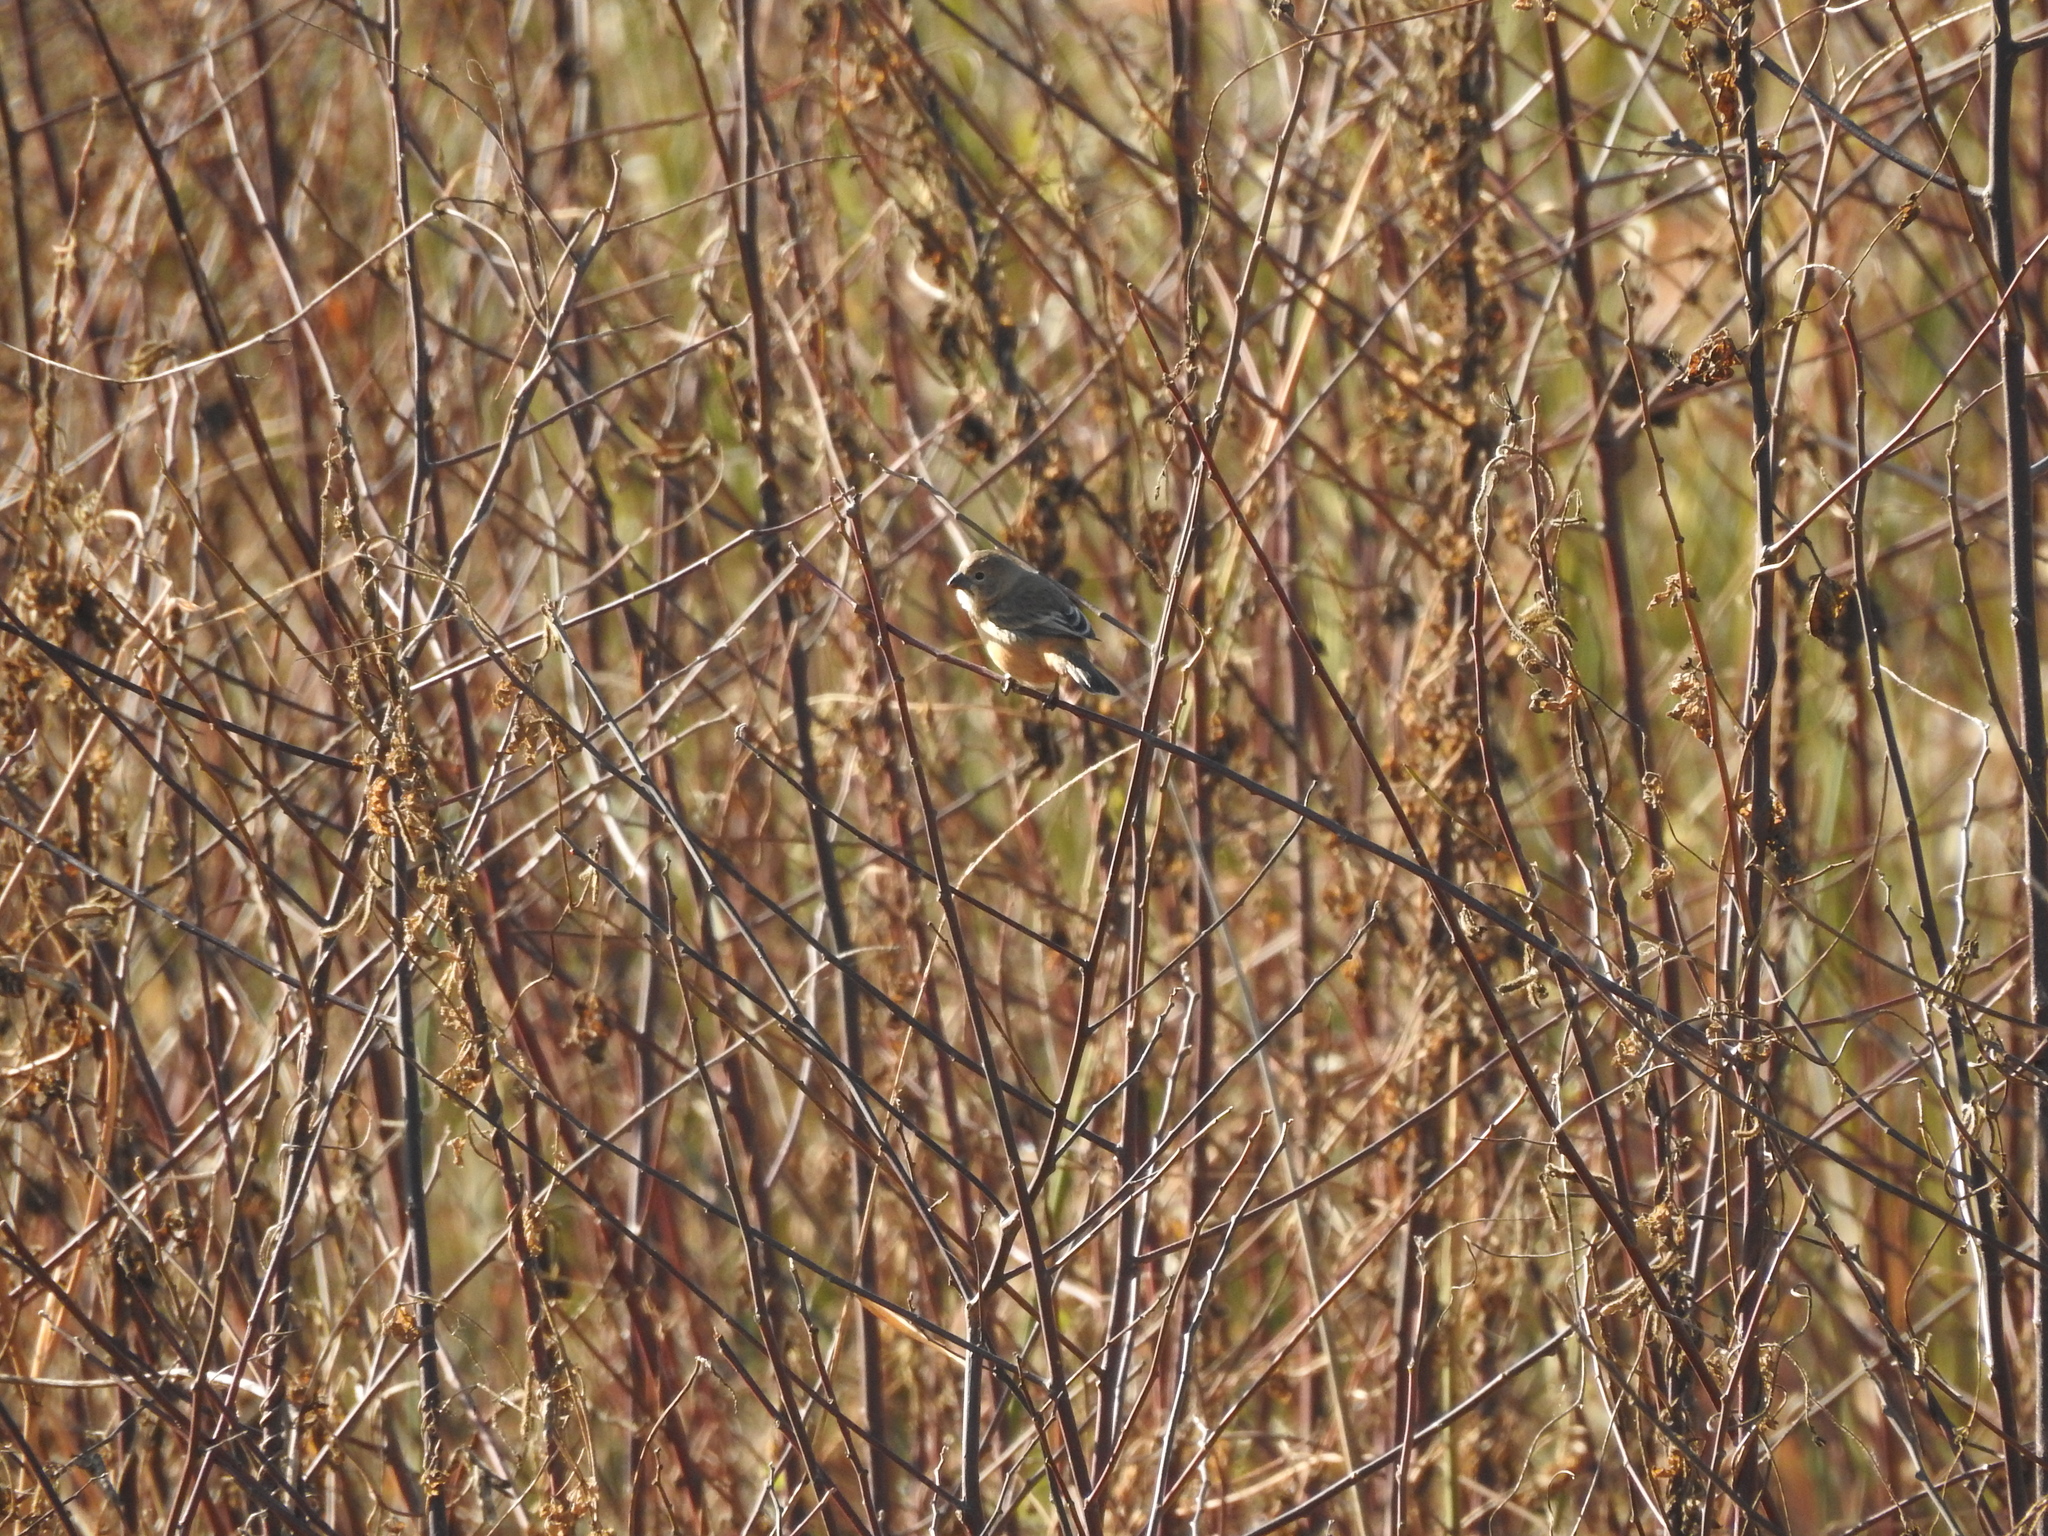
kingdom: Animalia
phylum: Chordata
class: Aves
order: Passeriformes
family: Thraupidae
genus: Sporophila
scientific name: Sporophila collaris
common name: Rusty-collared seedeater
